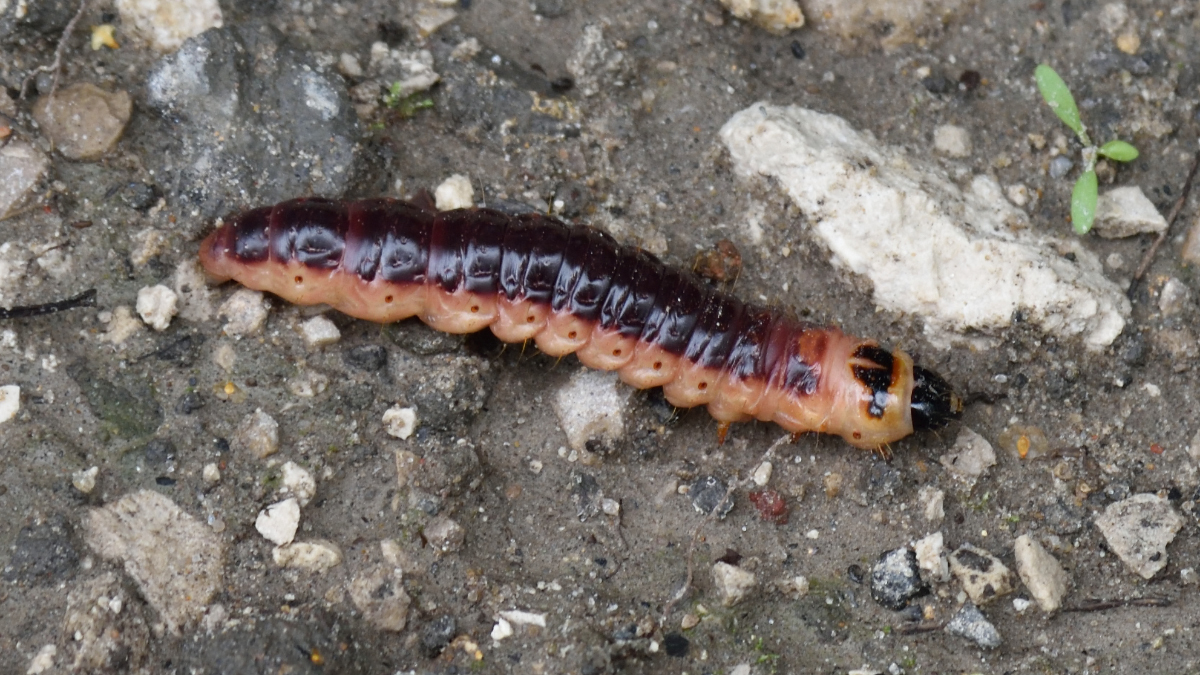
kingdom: Animalia
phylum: Arthropoda
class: Insecta
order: Lepidoptera
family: Cossidae
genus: Cossus
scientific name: Cossus cossus
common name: Goat moth
